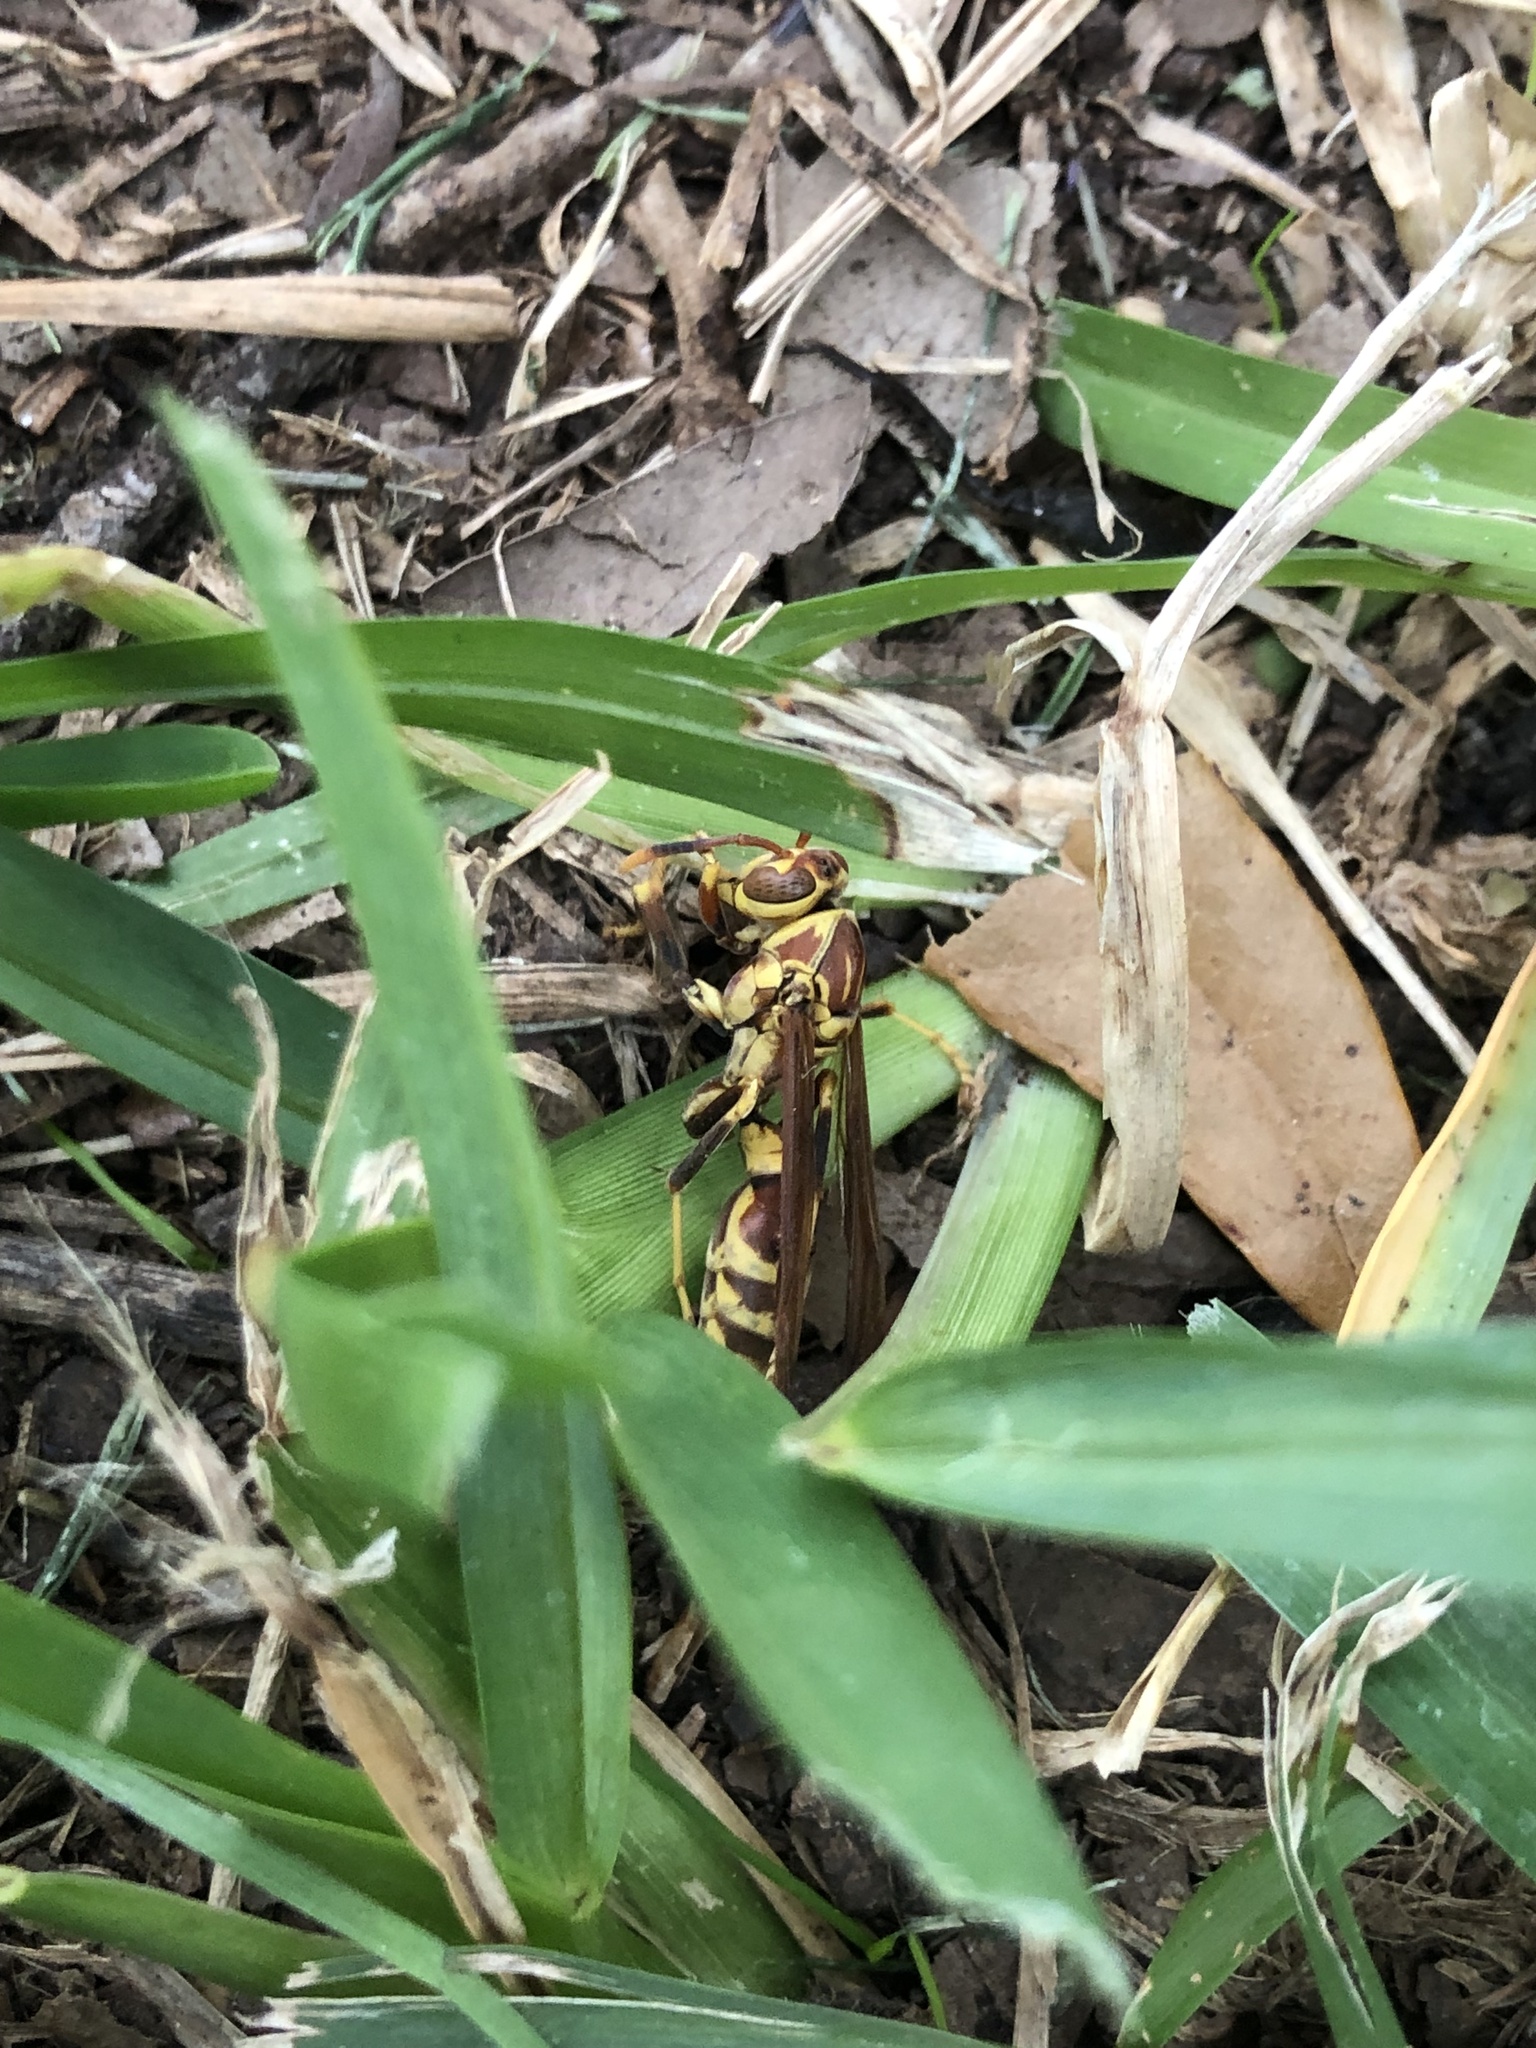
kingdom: Animalia
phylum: Arthropoda
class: Insecta
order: Hymenoptera
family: Eumenidae
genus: Polistes
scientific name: Polistes exclamans
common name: Paper wasp
